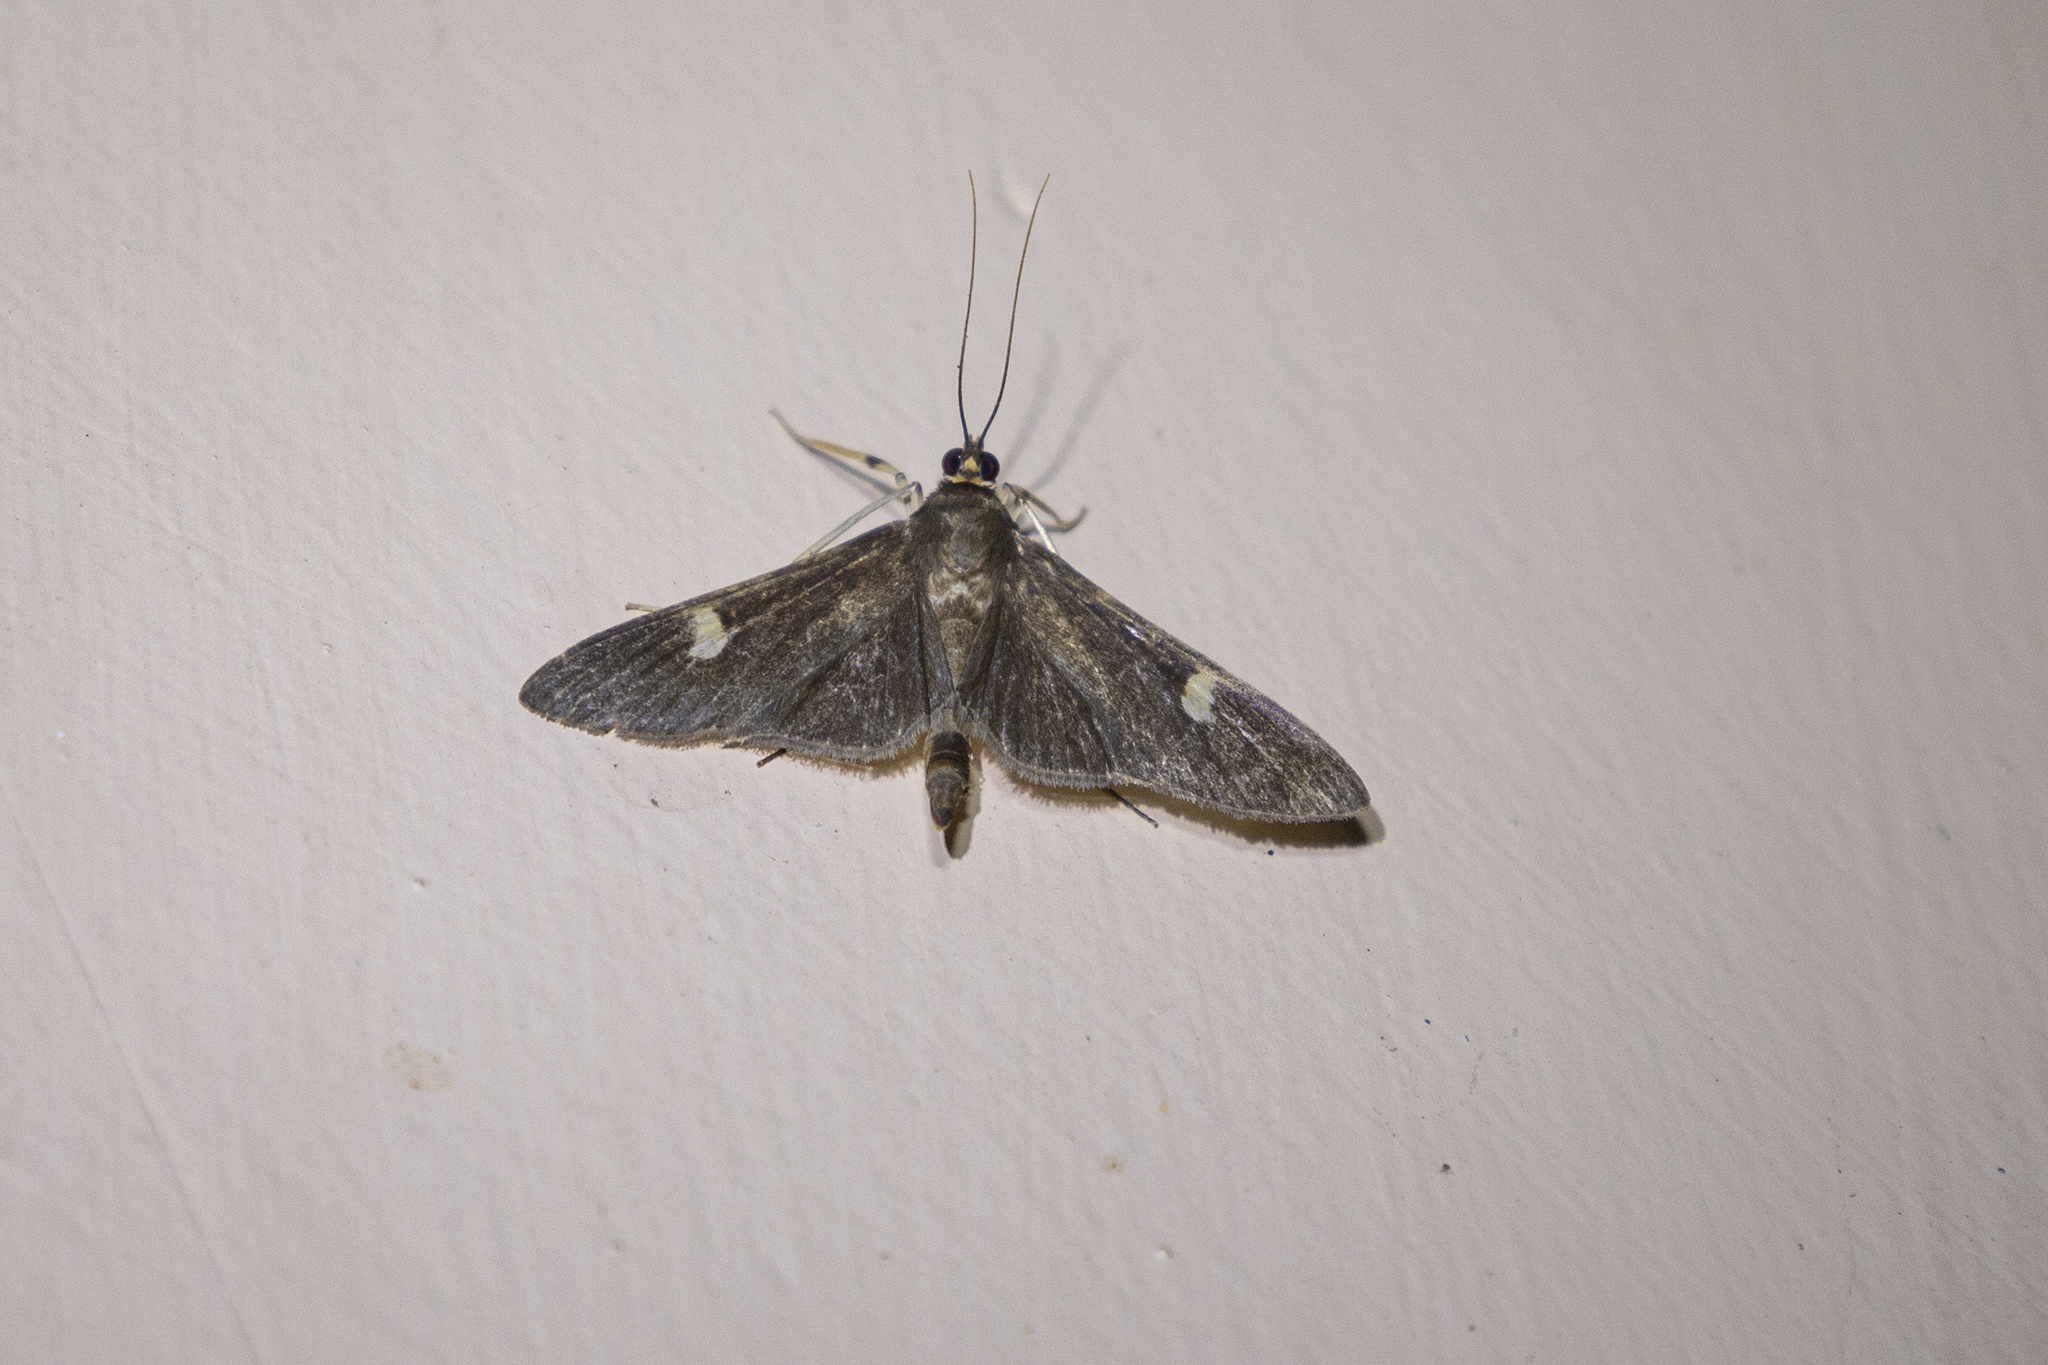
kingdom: Animalia
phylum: Arthropoda
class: Insecta
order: Lepidoptera
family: Crambidae
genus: Nosophora
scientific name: Nosophora dispilalis
